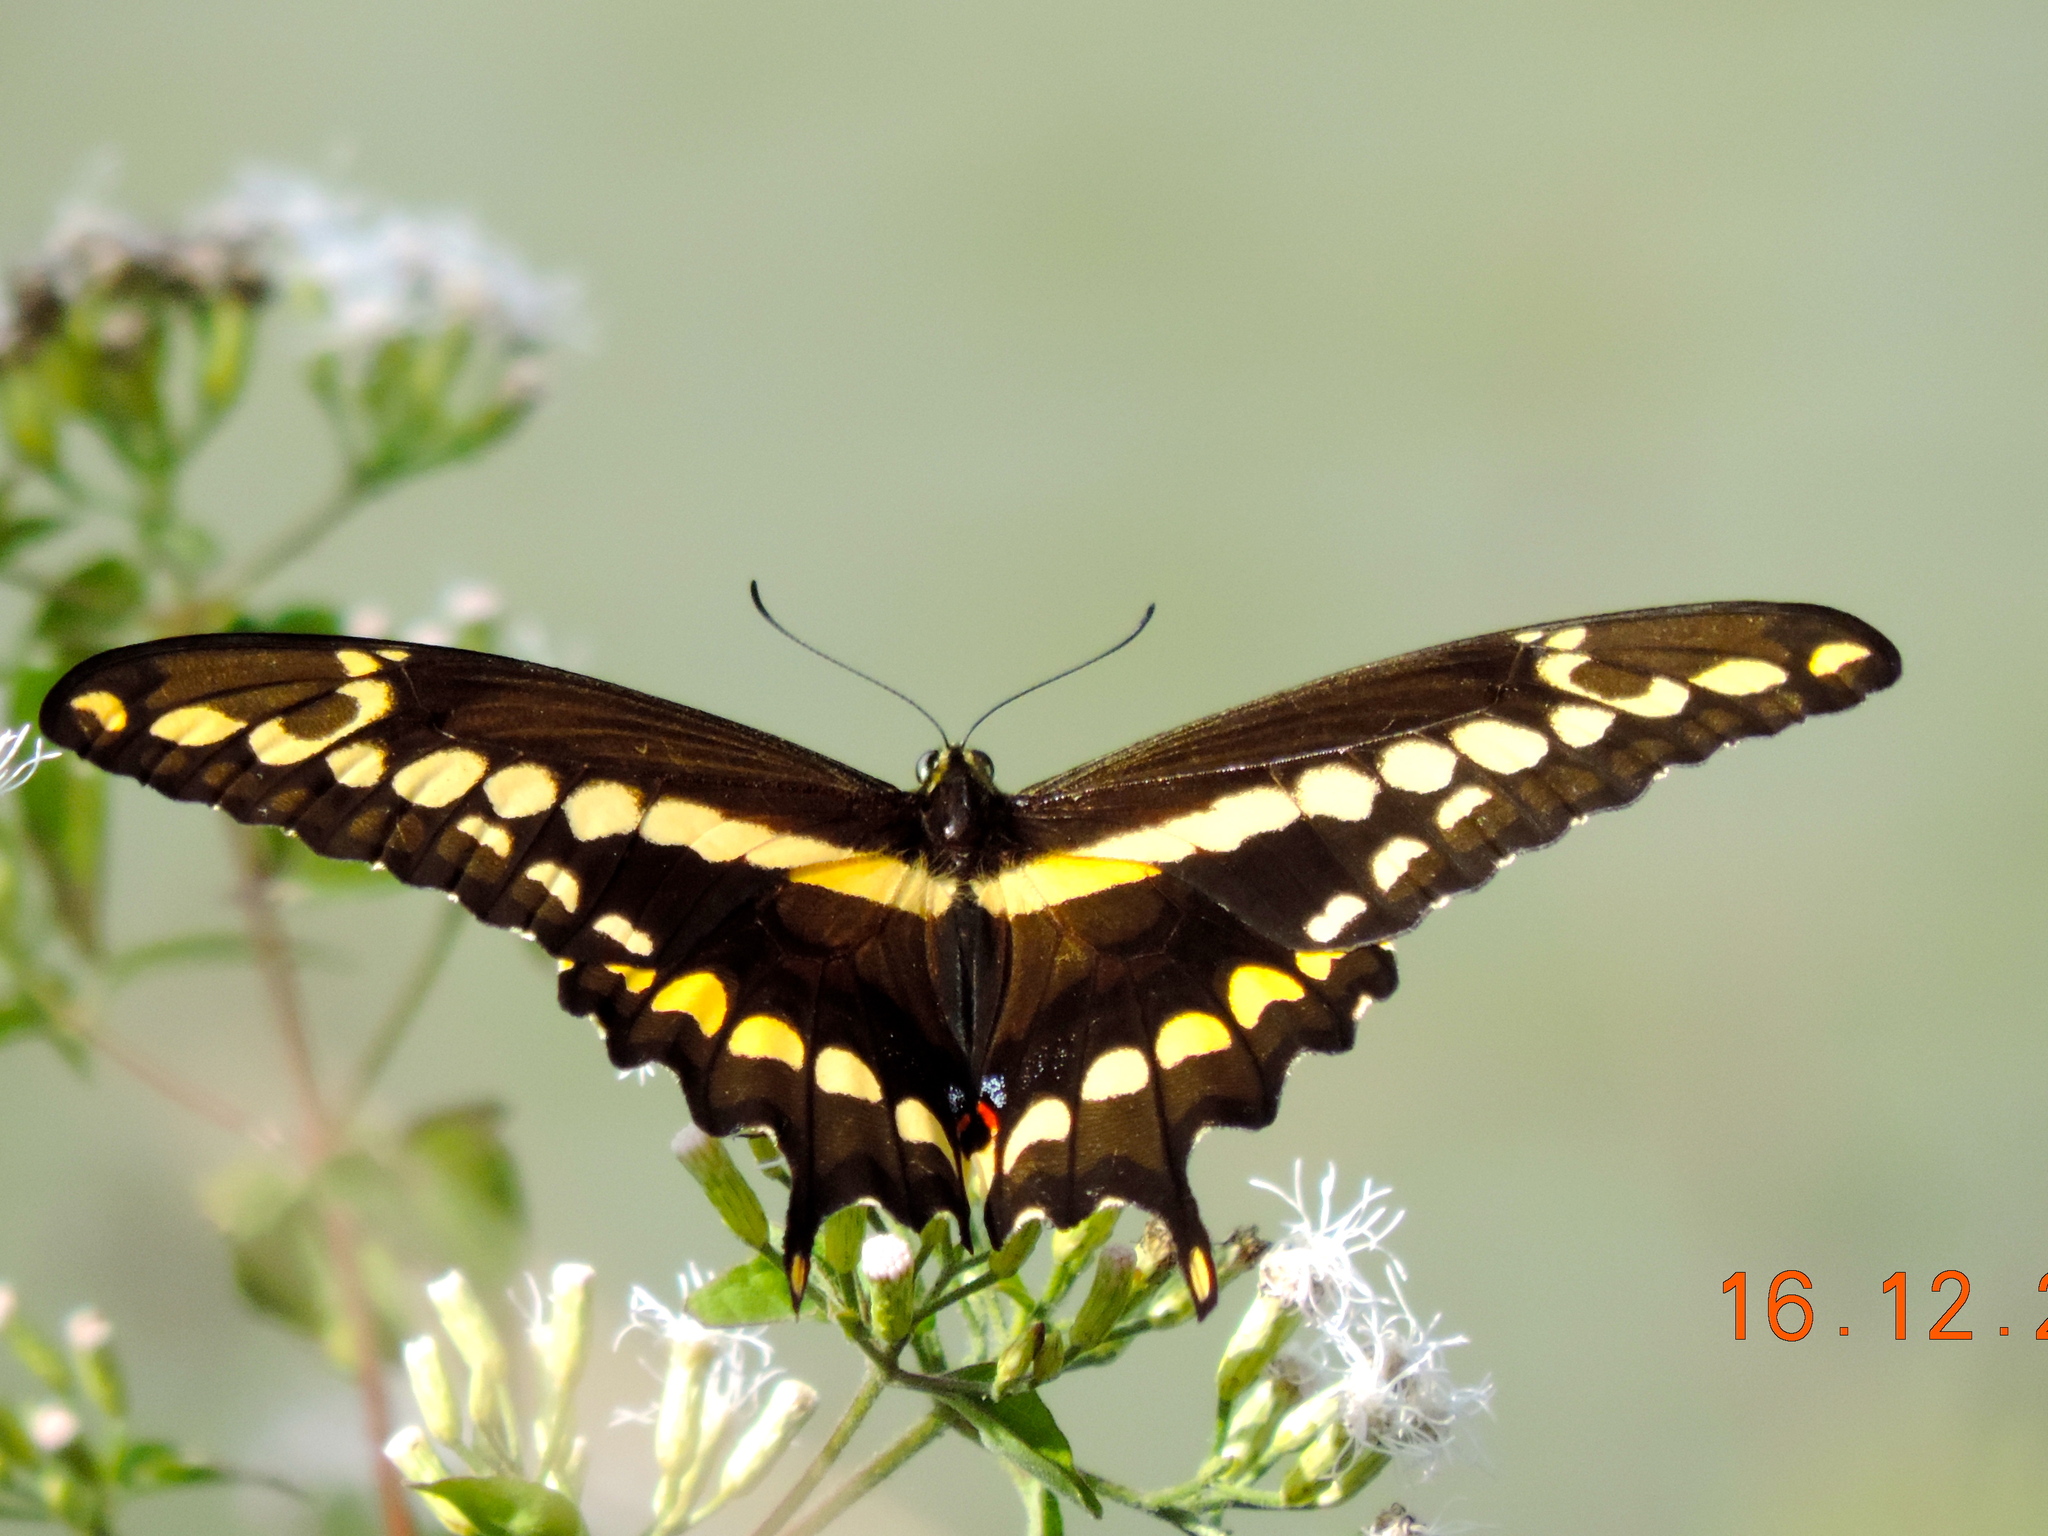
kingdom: Animalia
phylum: Arthropoda
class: Insecta
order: Lepidoptera
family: Papilionidae
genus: Papilio
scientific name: Papilio rumiko
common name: Western giant swallowtail
